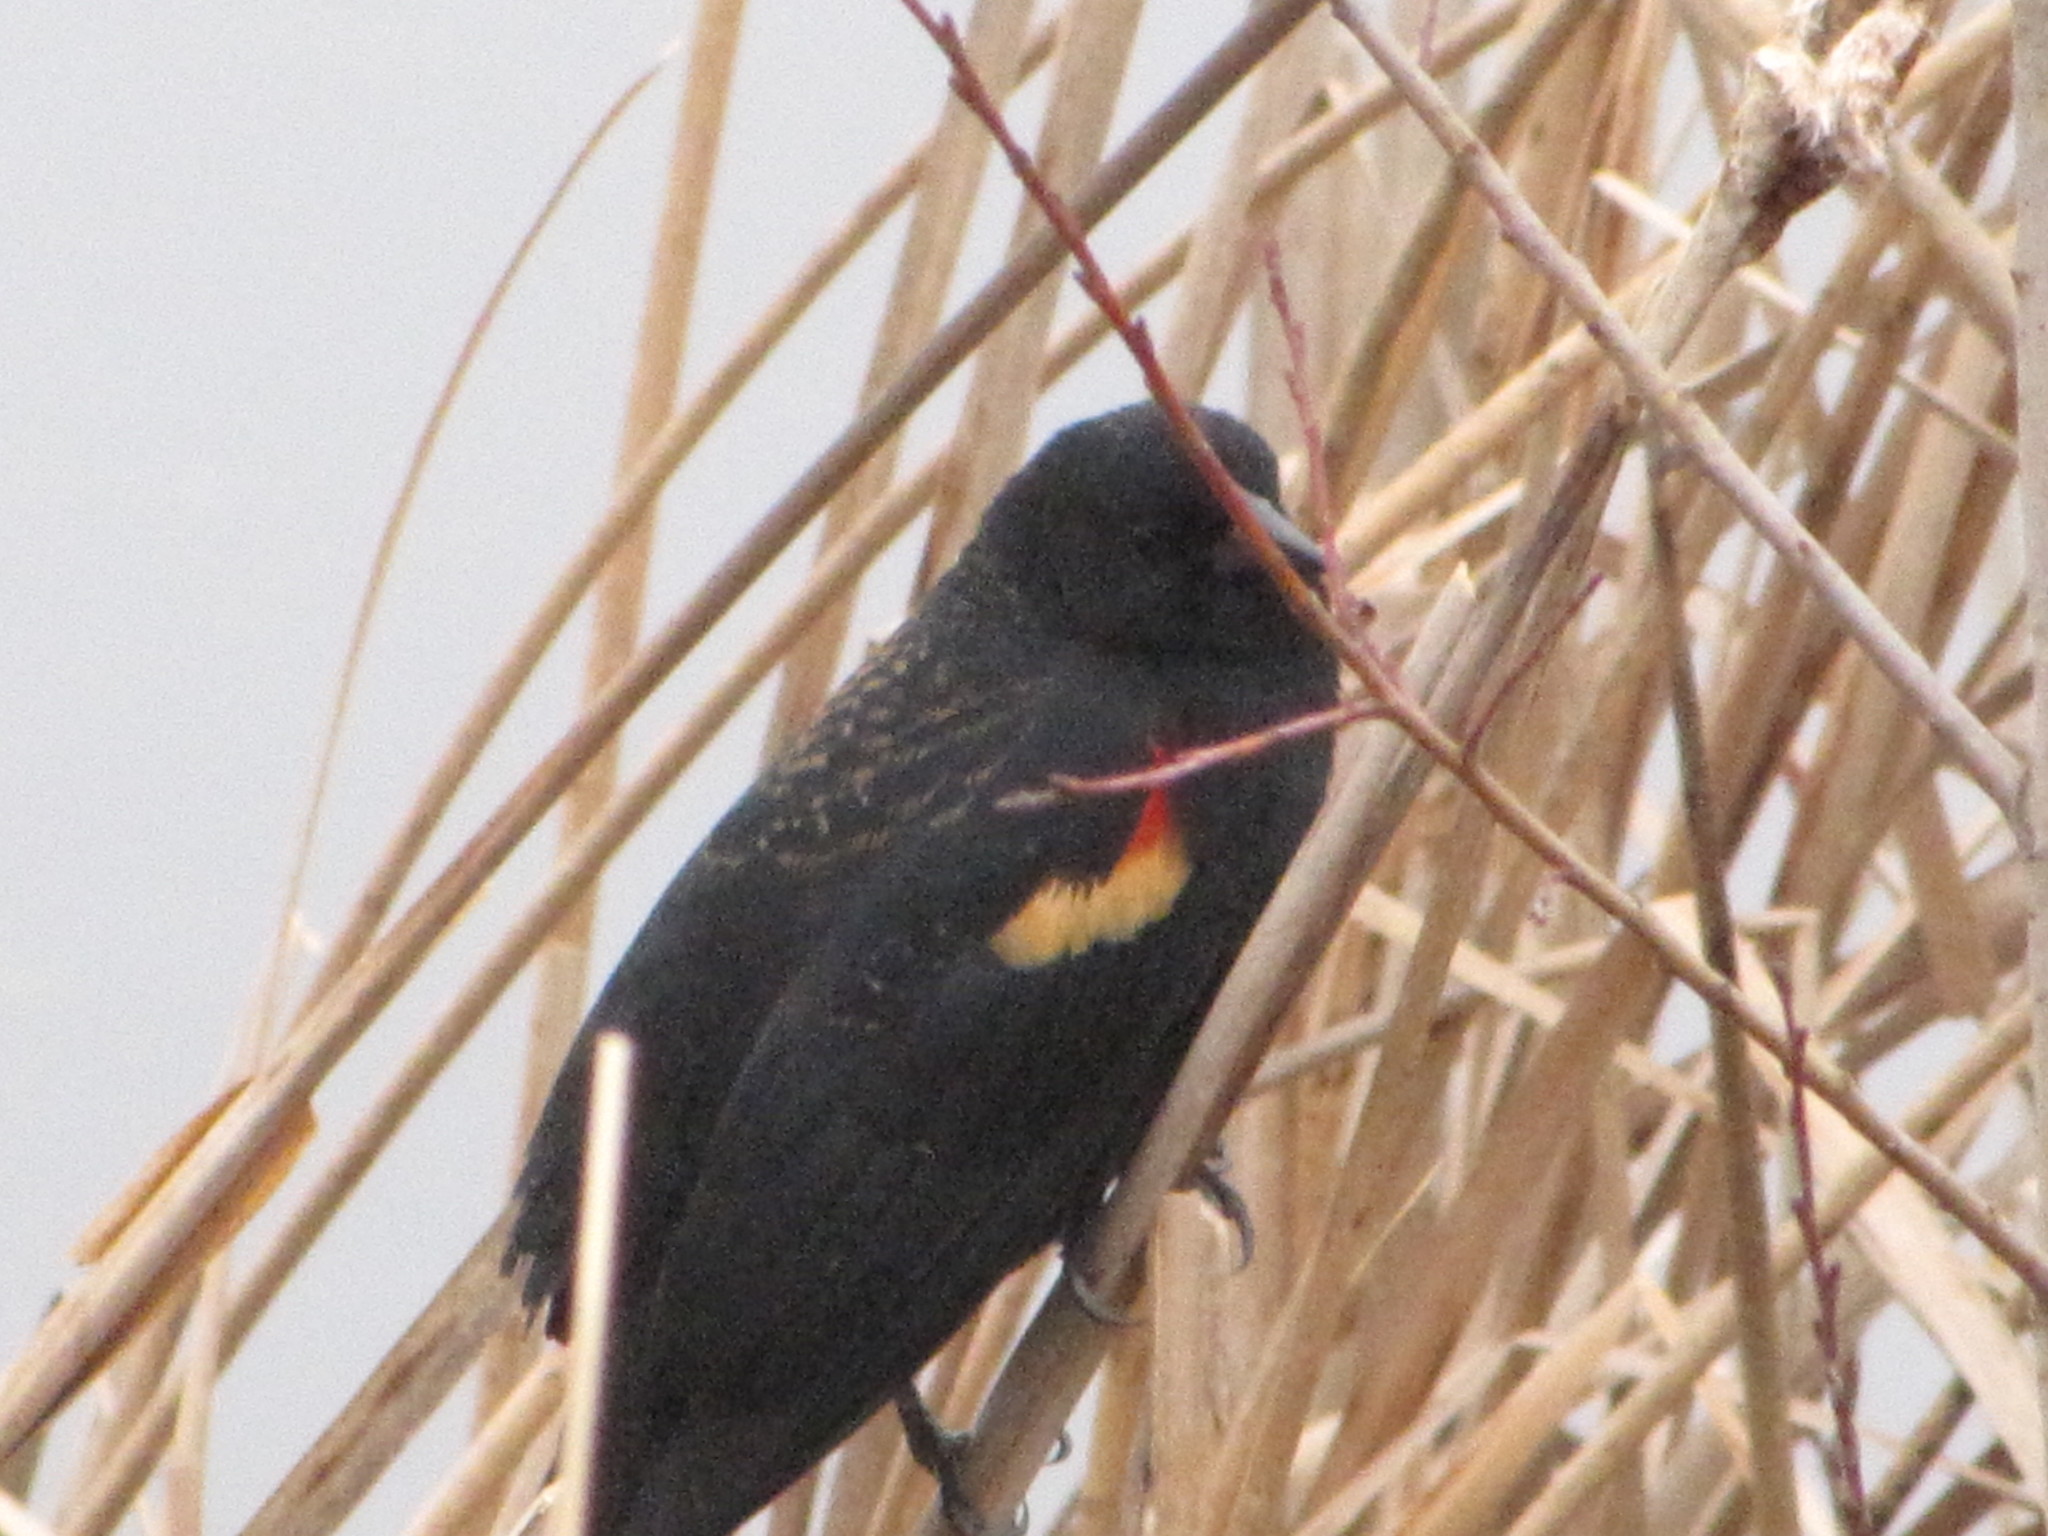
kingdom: Animalia
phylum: Chordata
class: Aves
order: Passeriformes
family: Icteridae
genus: Agelaius
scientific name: Agelaius phoeniceus
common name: Red-winged blackbird
